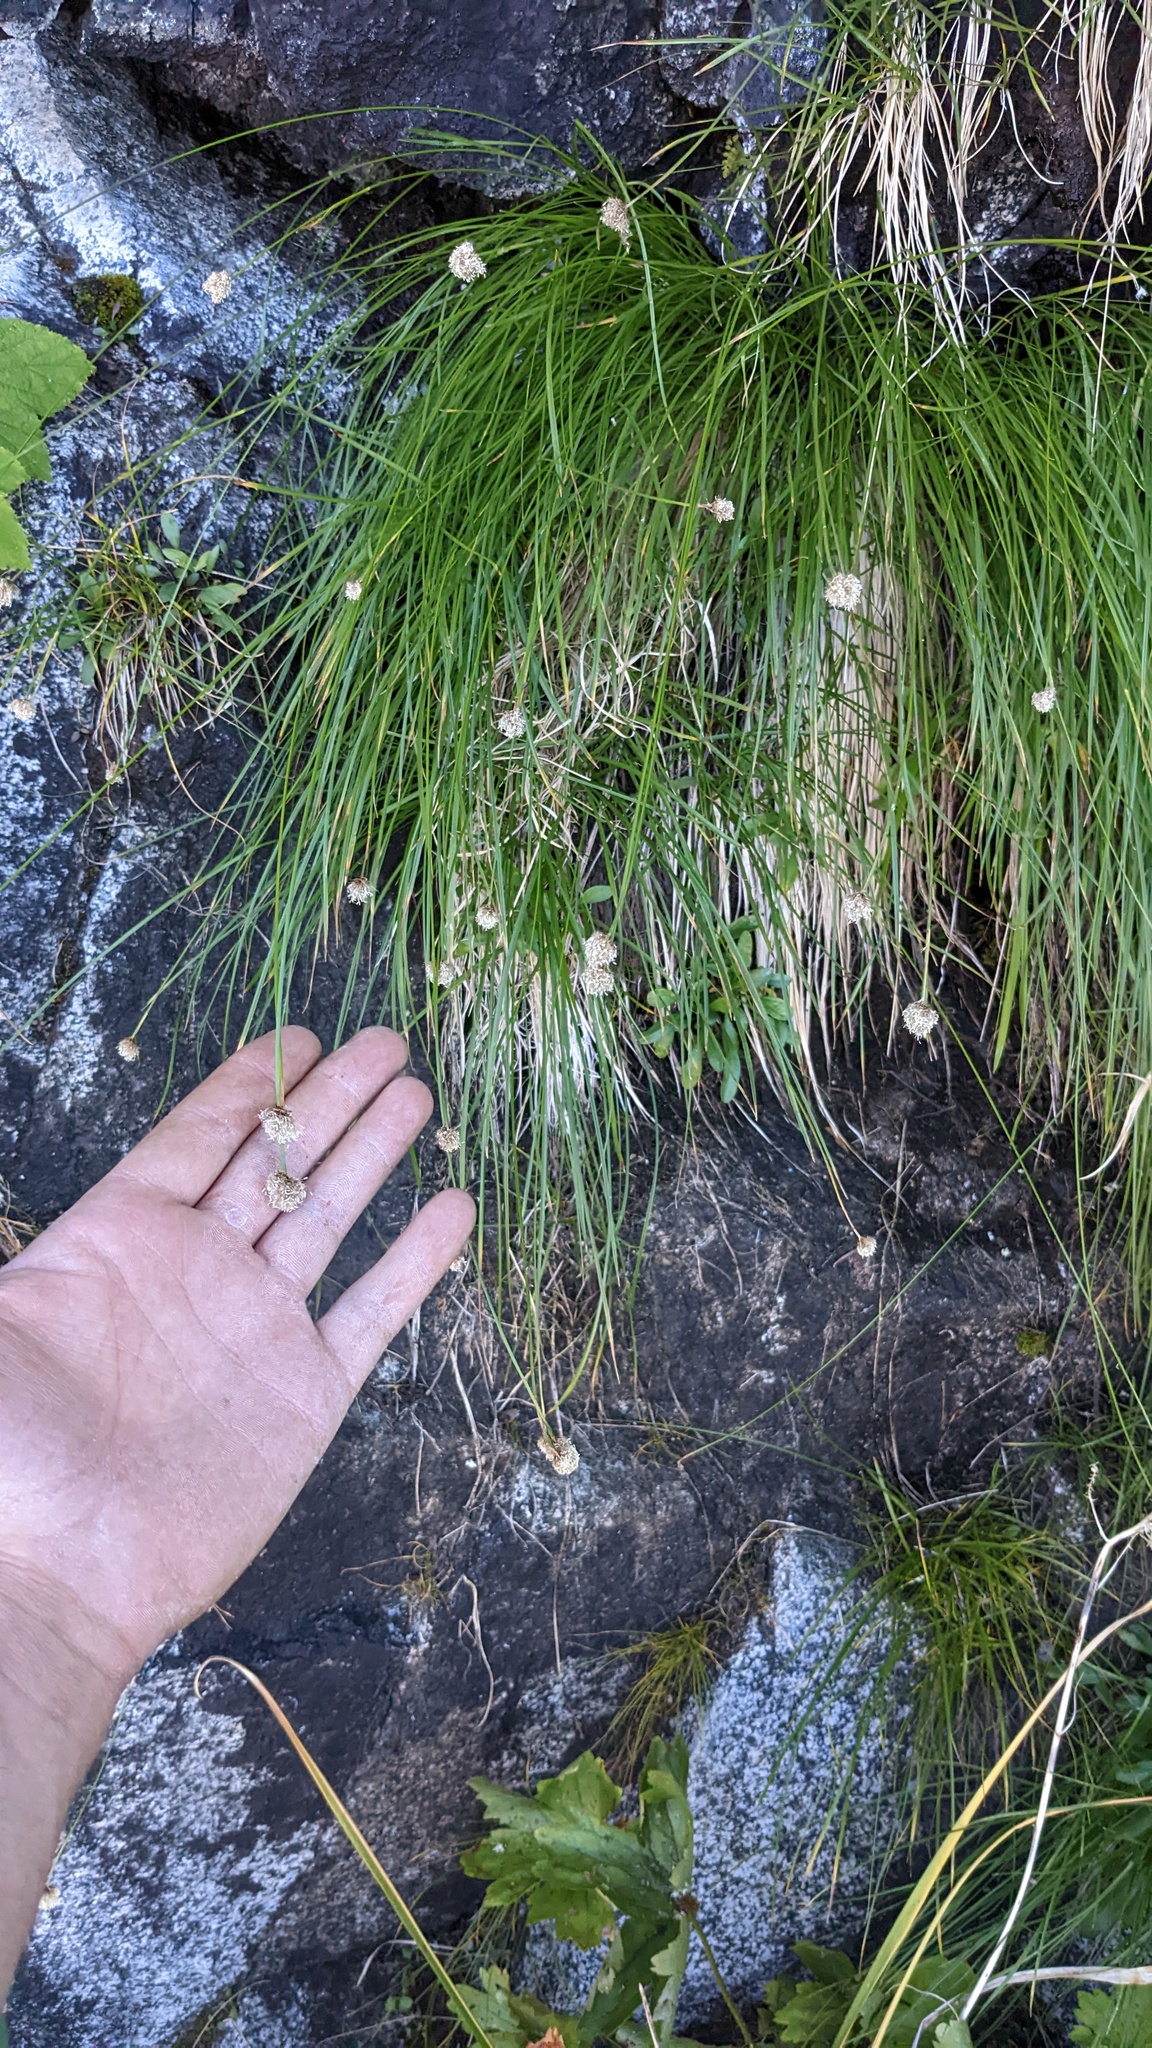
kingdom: Plantae
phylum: Tracheophyta
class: Liliopsida
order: Poales
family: Cyperaceae
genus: Calliscirpus
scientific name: Calliscirpus criniger
